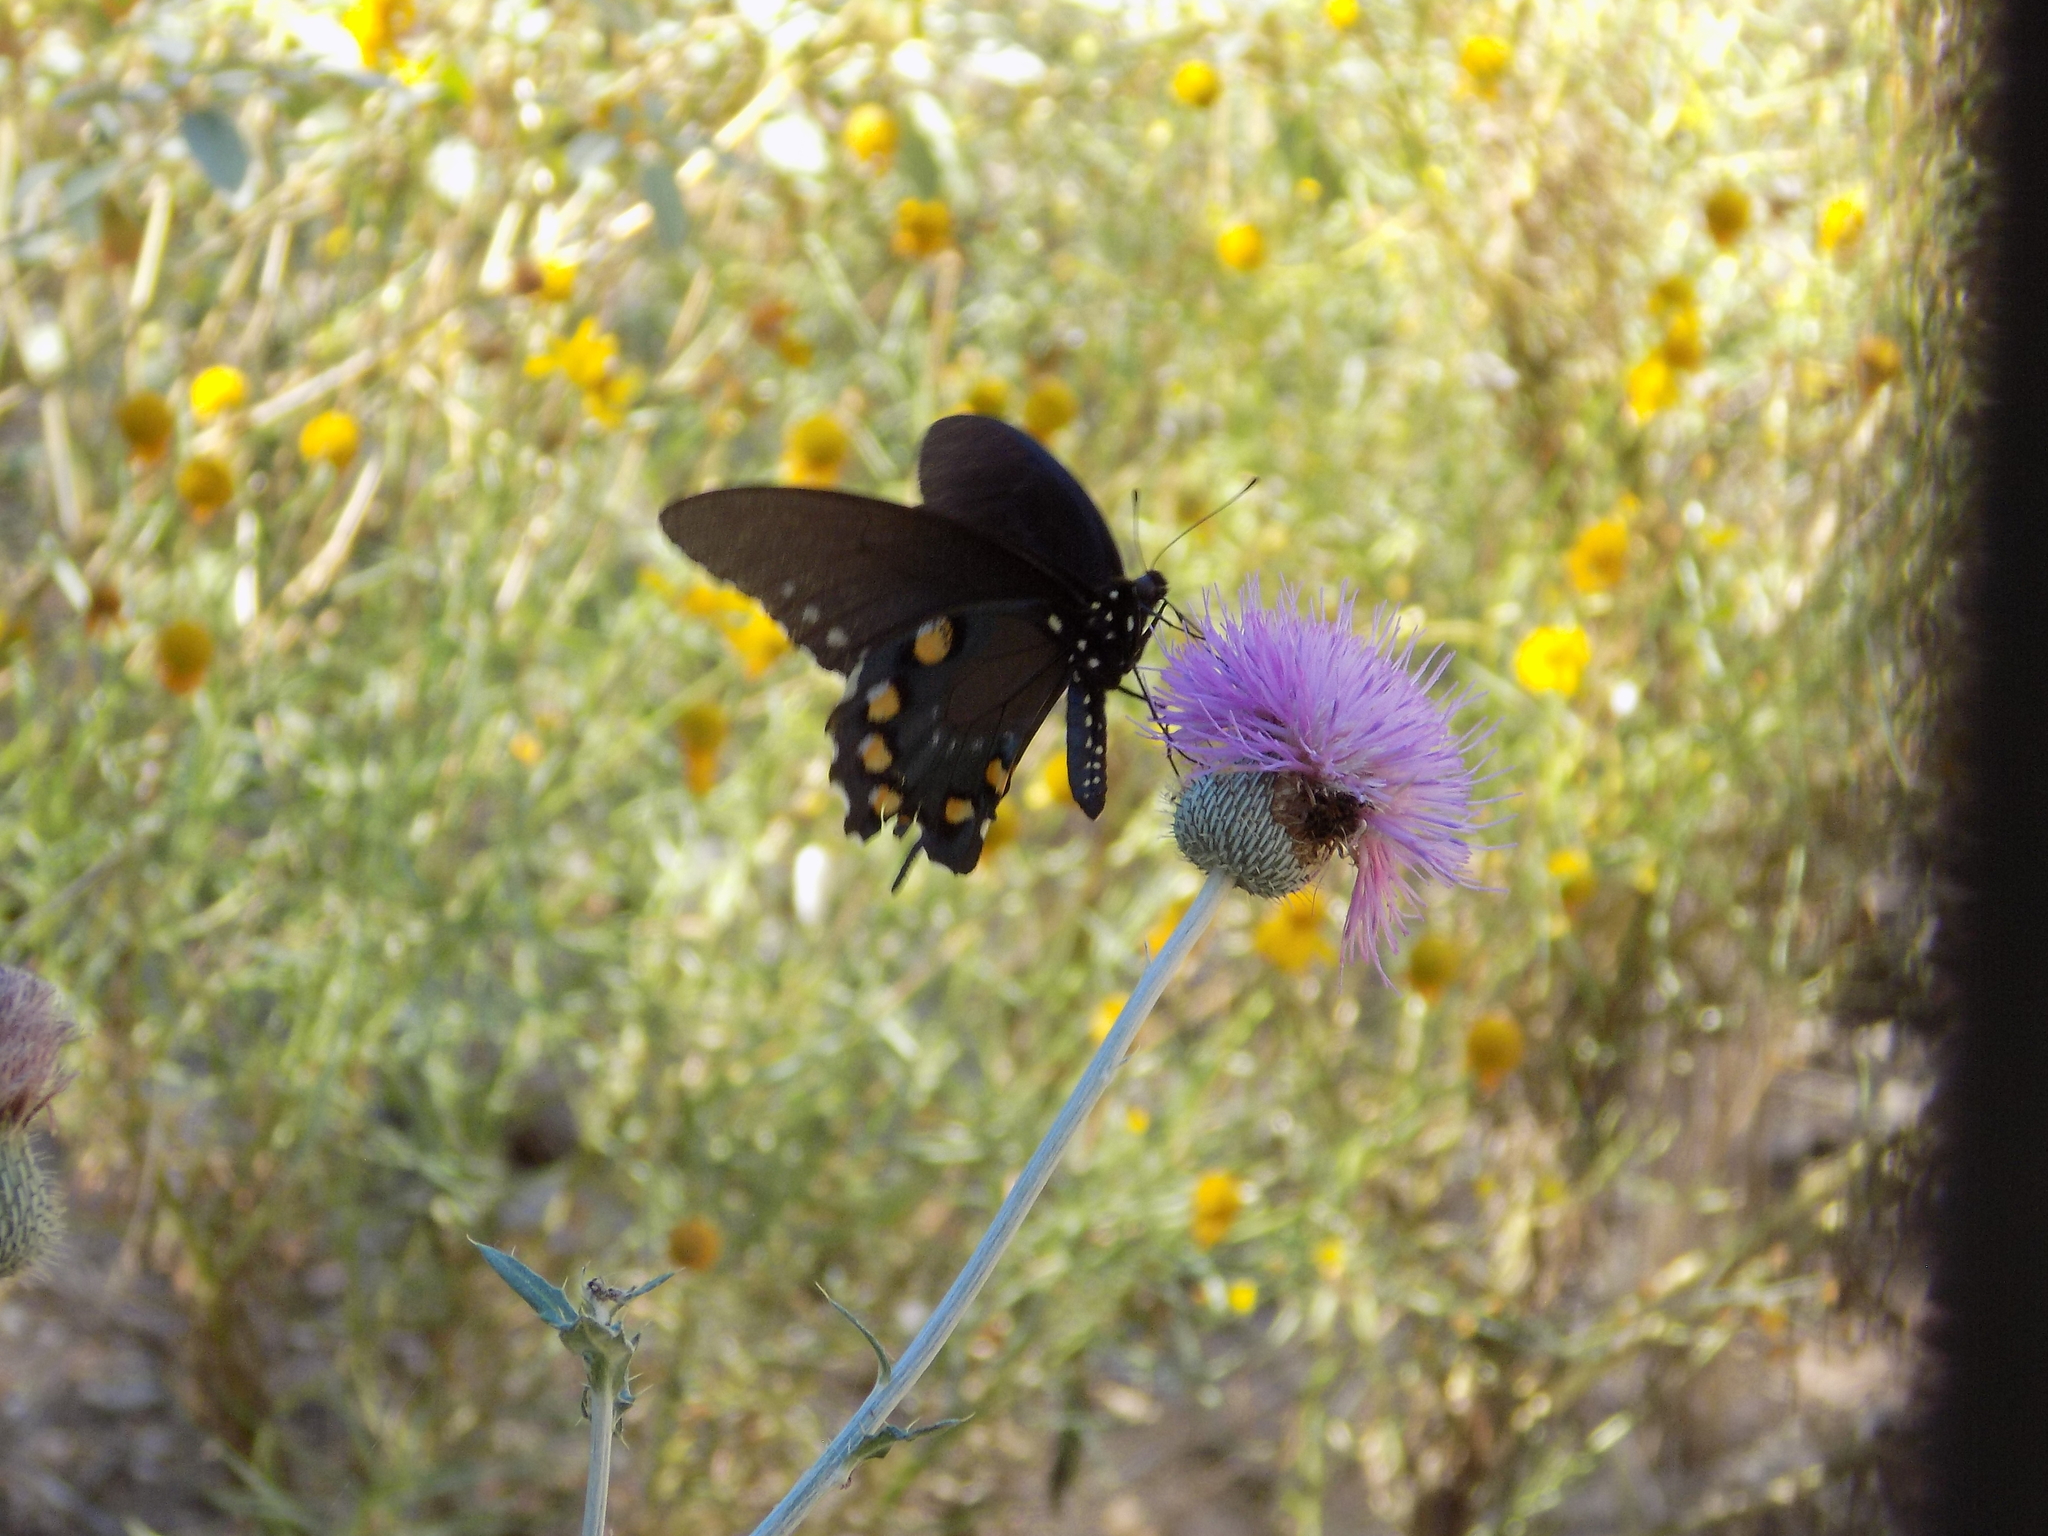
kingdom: Animalia
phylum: Arthropoda
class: Insecta
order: Lepidoptera
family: Papilionidae
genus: Battus
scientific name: Battus philenor
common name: Pipevine swallowtail
